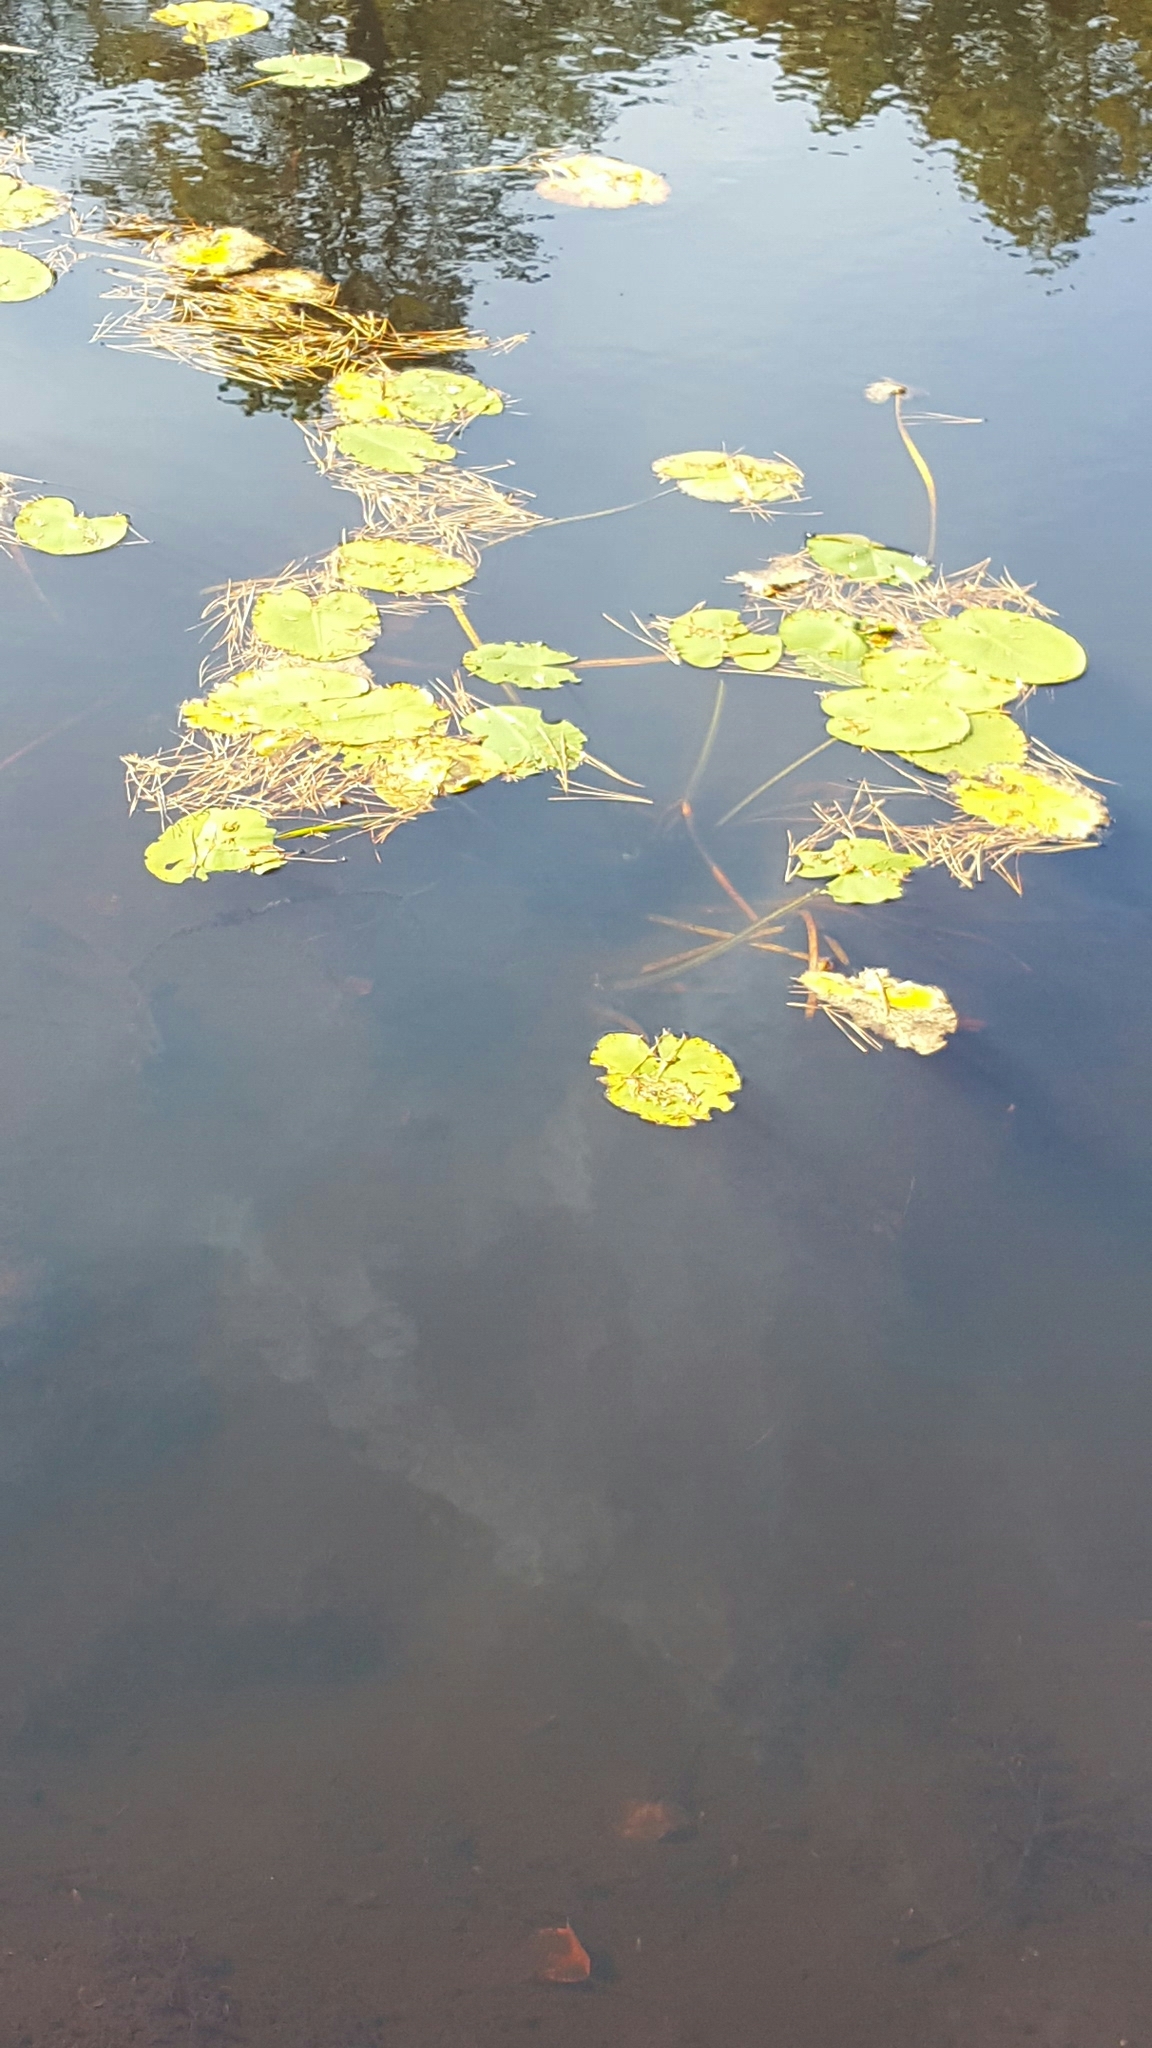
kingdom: Plantae
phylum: Tracheophyta
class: Magnoliopsida
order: Nymphaeales
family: Nymphaeaceae
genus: Nuphar
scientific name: Nuphar variegata
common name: Beaver-root
